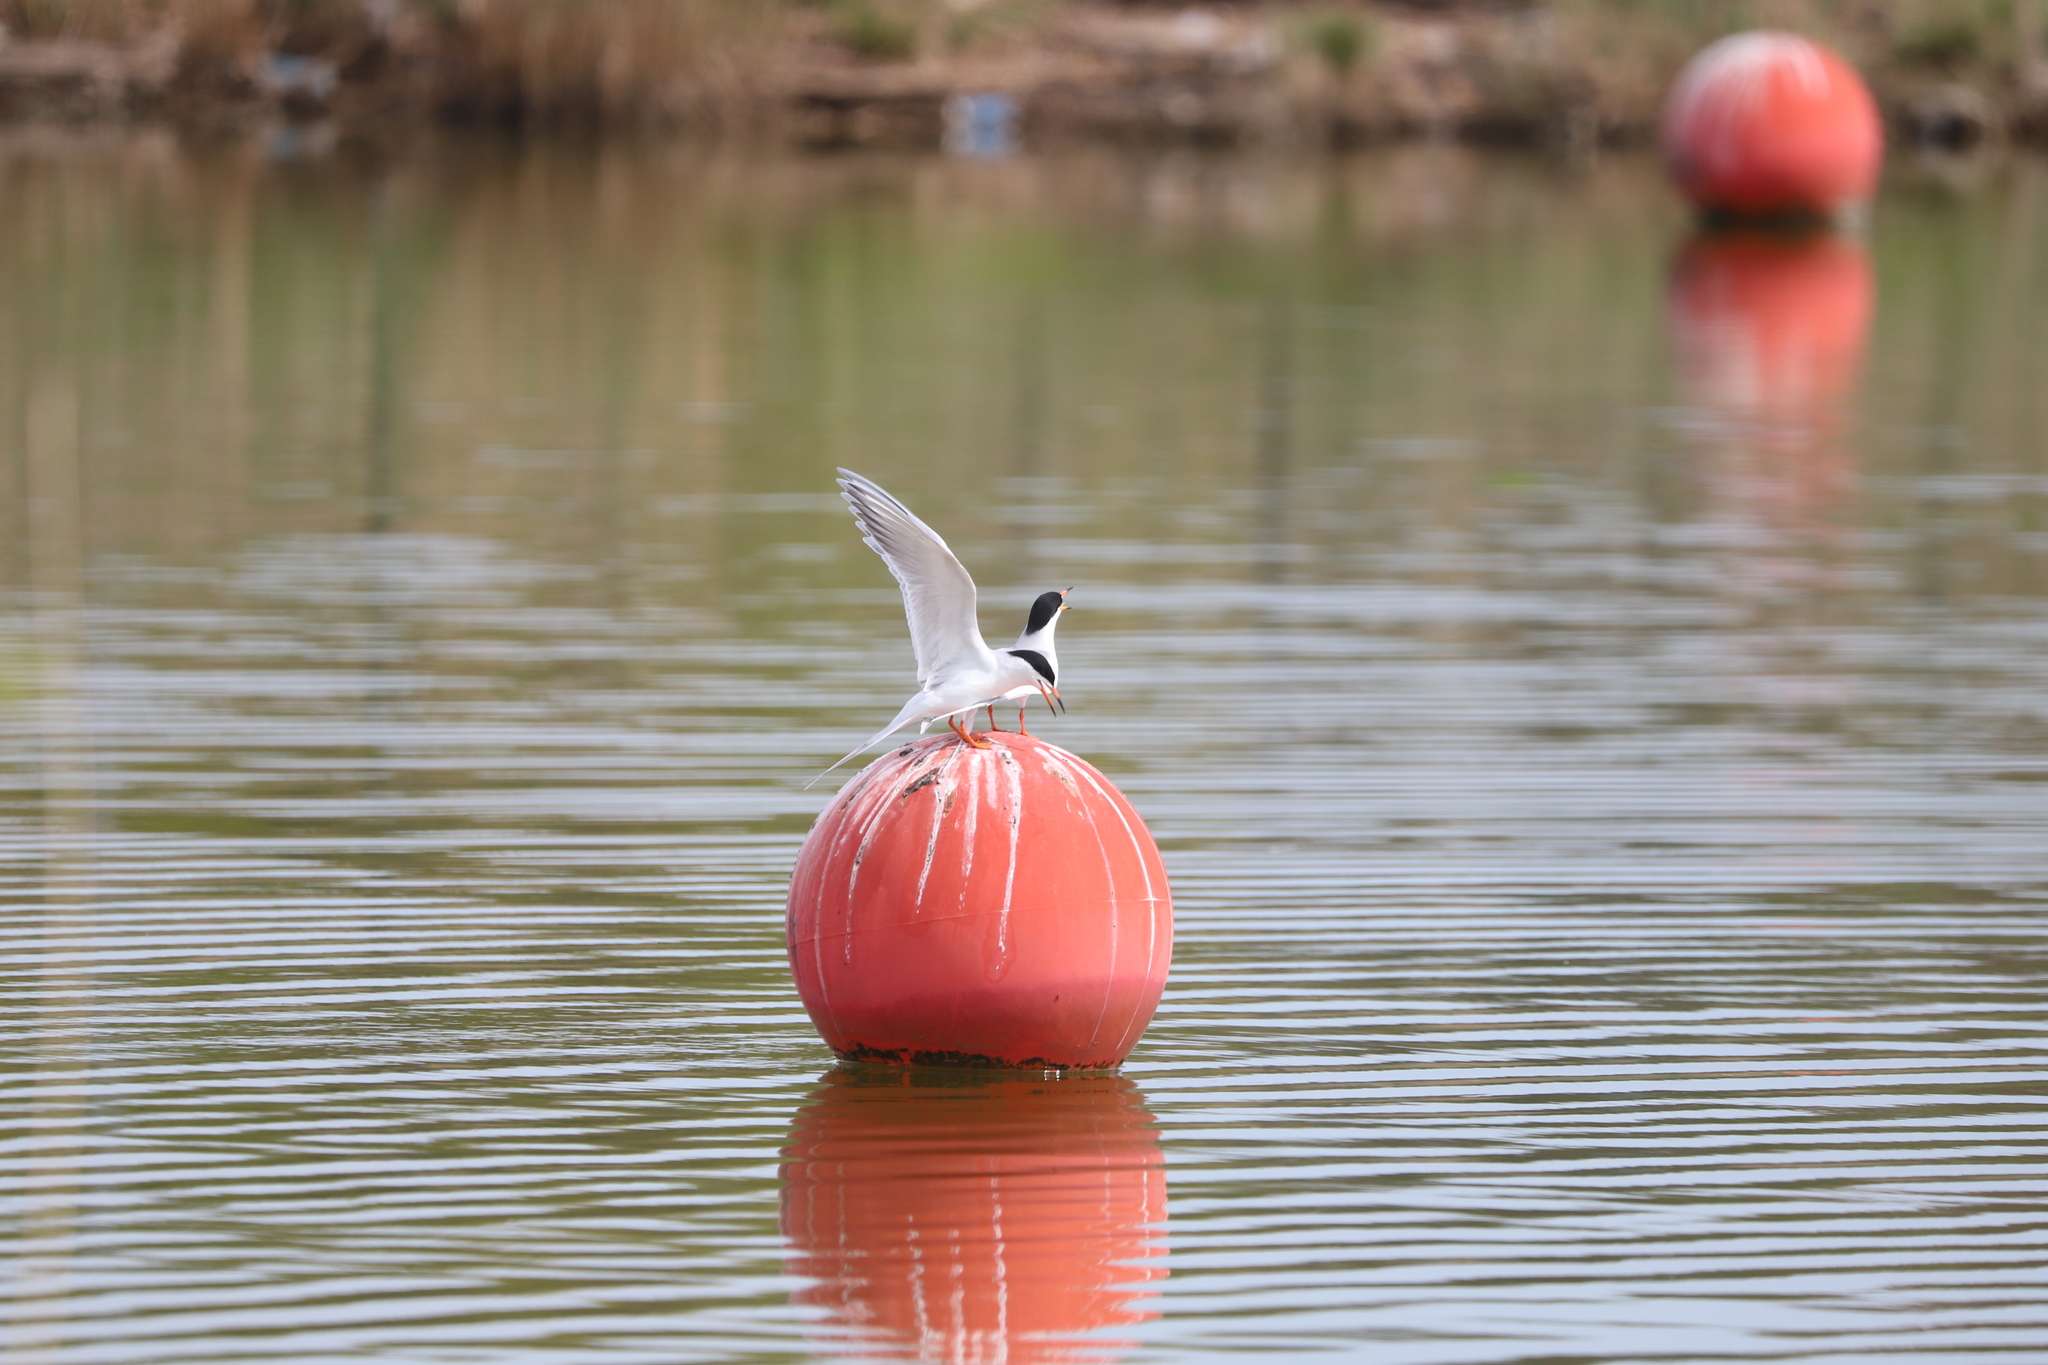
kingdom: Animalia
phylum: Chordata
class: Aves
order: Charadriiformes
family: Laridae
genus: Sterna
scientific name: Sterna forsteri
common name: Forster's tern
